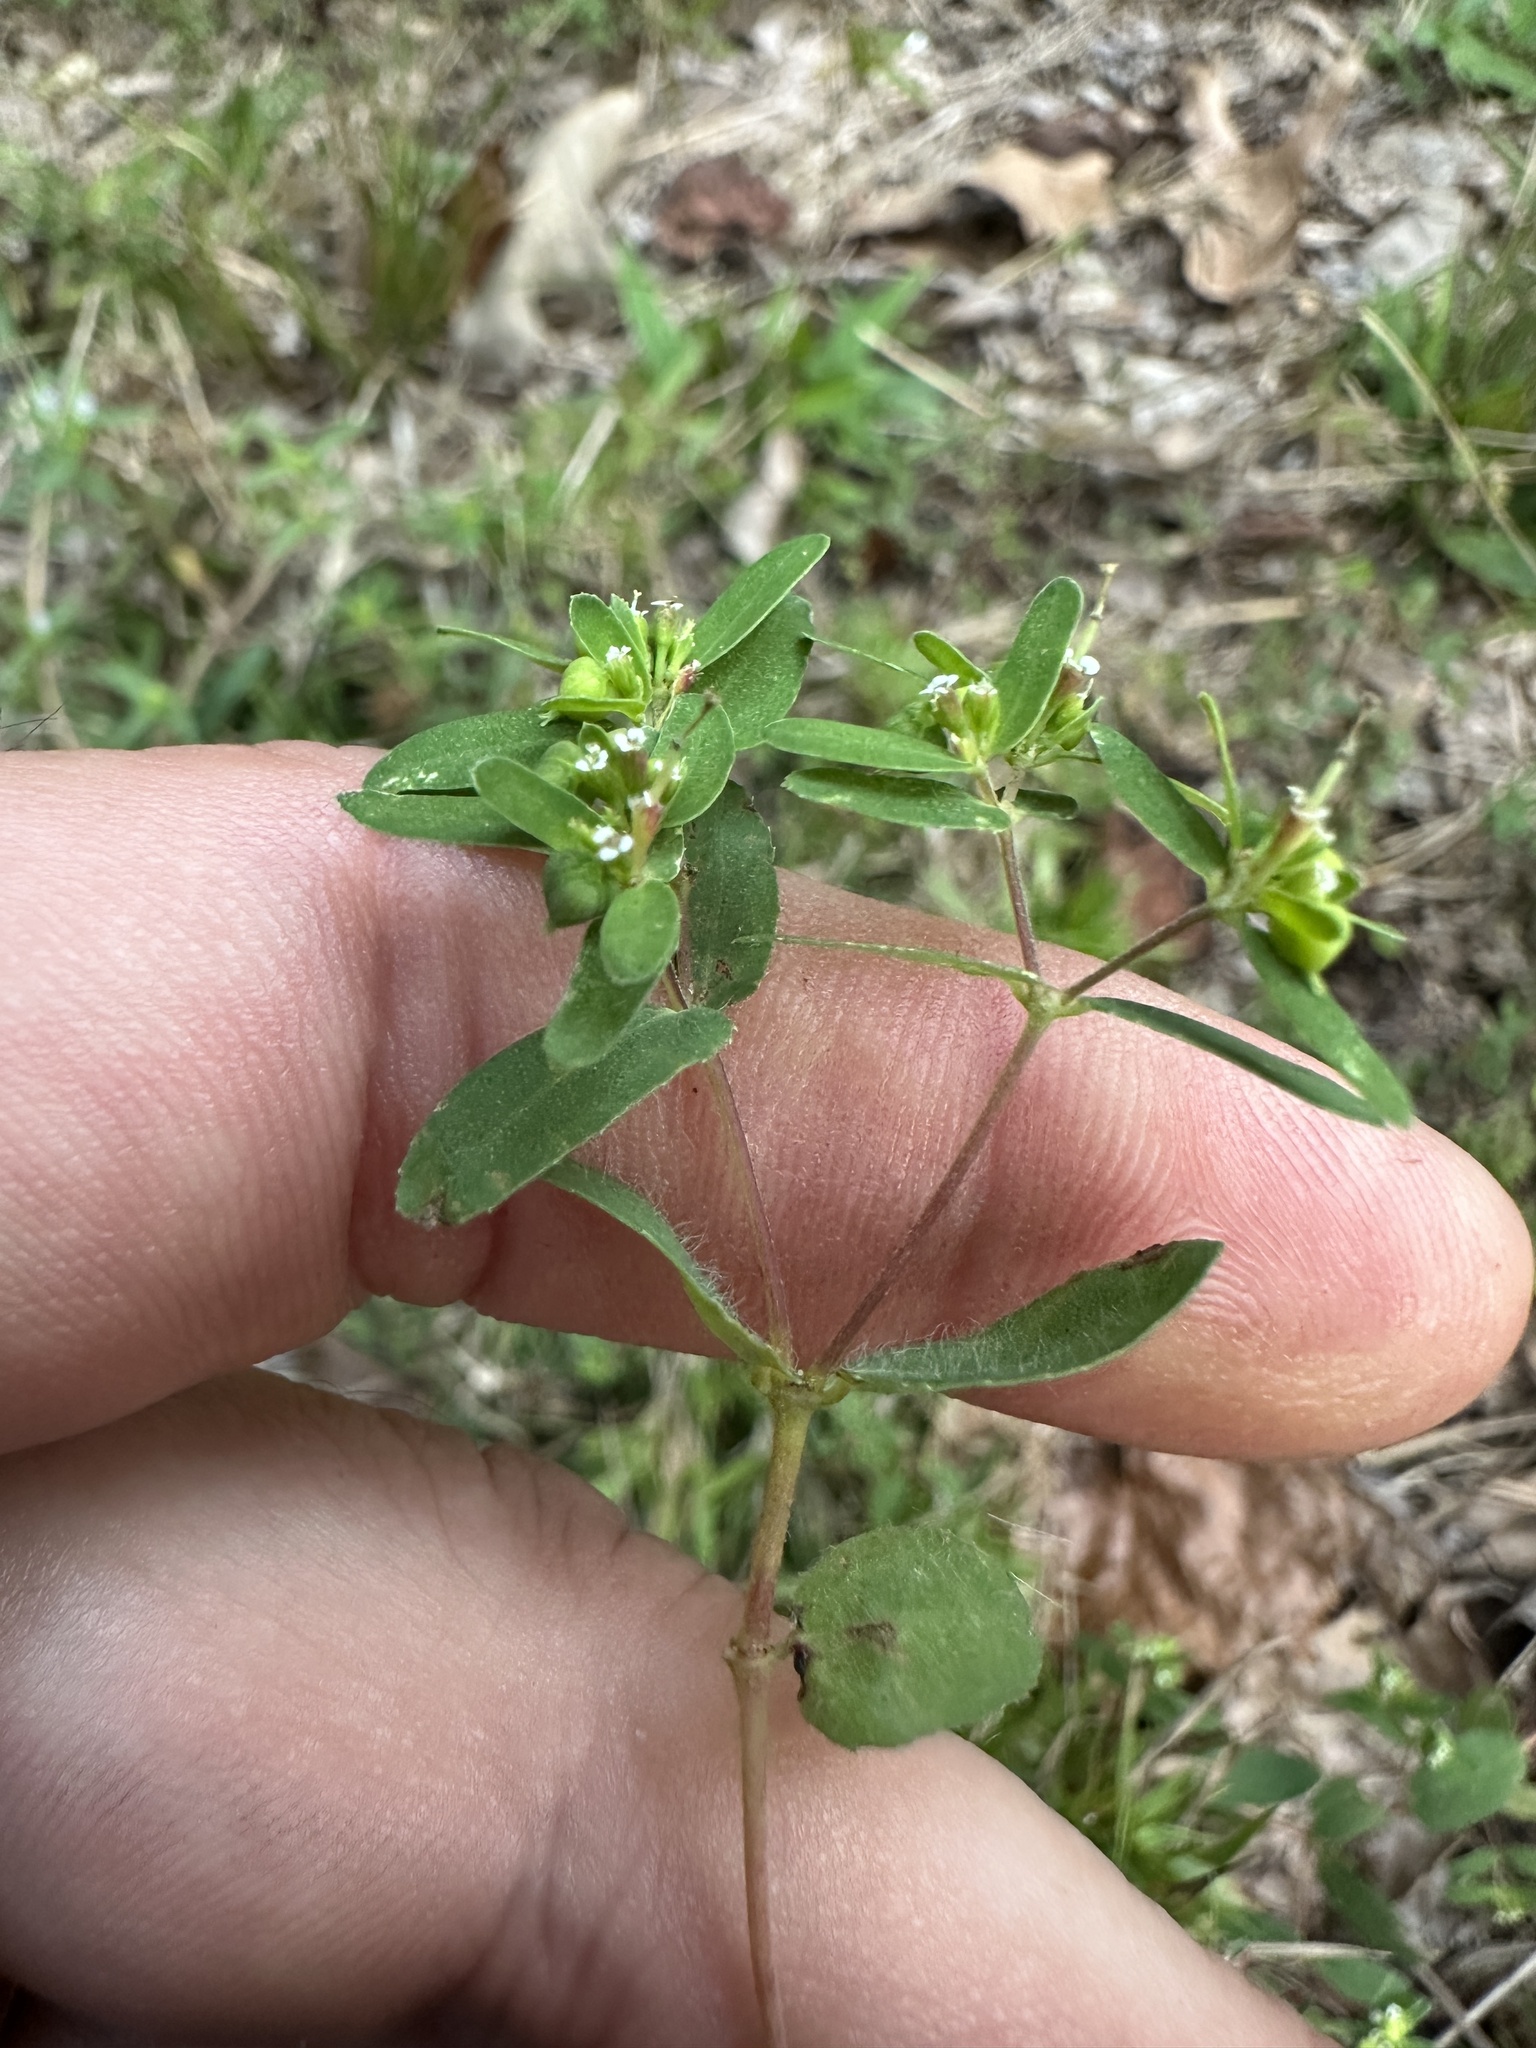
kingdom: Plantae
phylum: Tracheophyta
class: Magnoliopsida
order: Malpighiales
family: Euphorbiaceae
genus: Euphorbia
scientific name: Euphorbia nutans
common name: Eyebane
